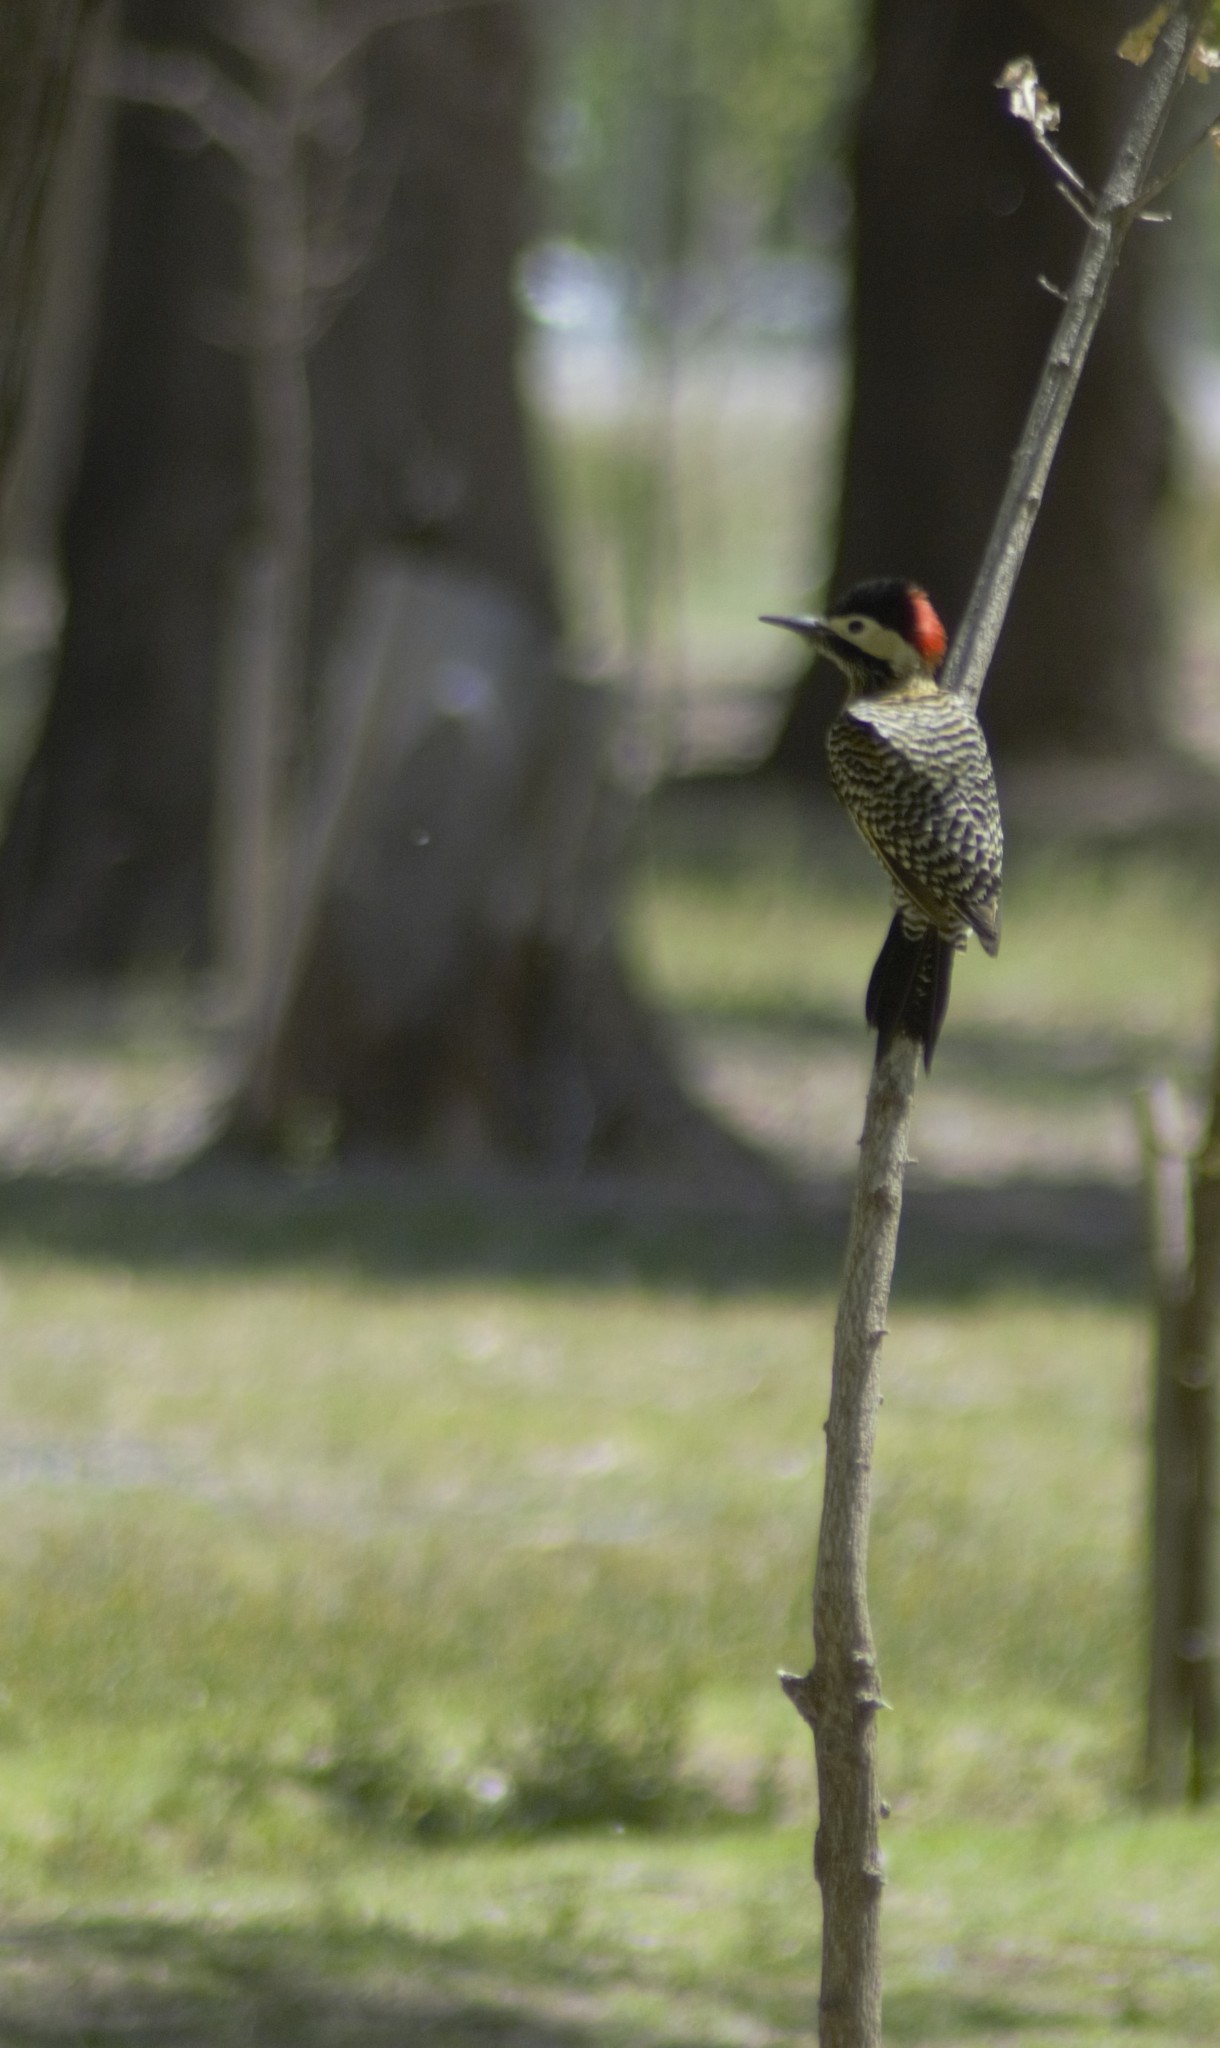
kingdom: Animalia
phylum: Chordata
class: Aves
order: Piciformes
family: Picidae
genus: Colaptes
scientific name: Colaptes melanochloros
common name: Green-barred woodpecker
